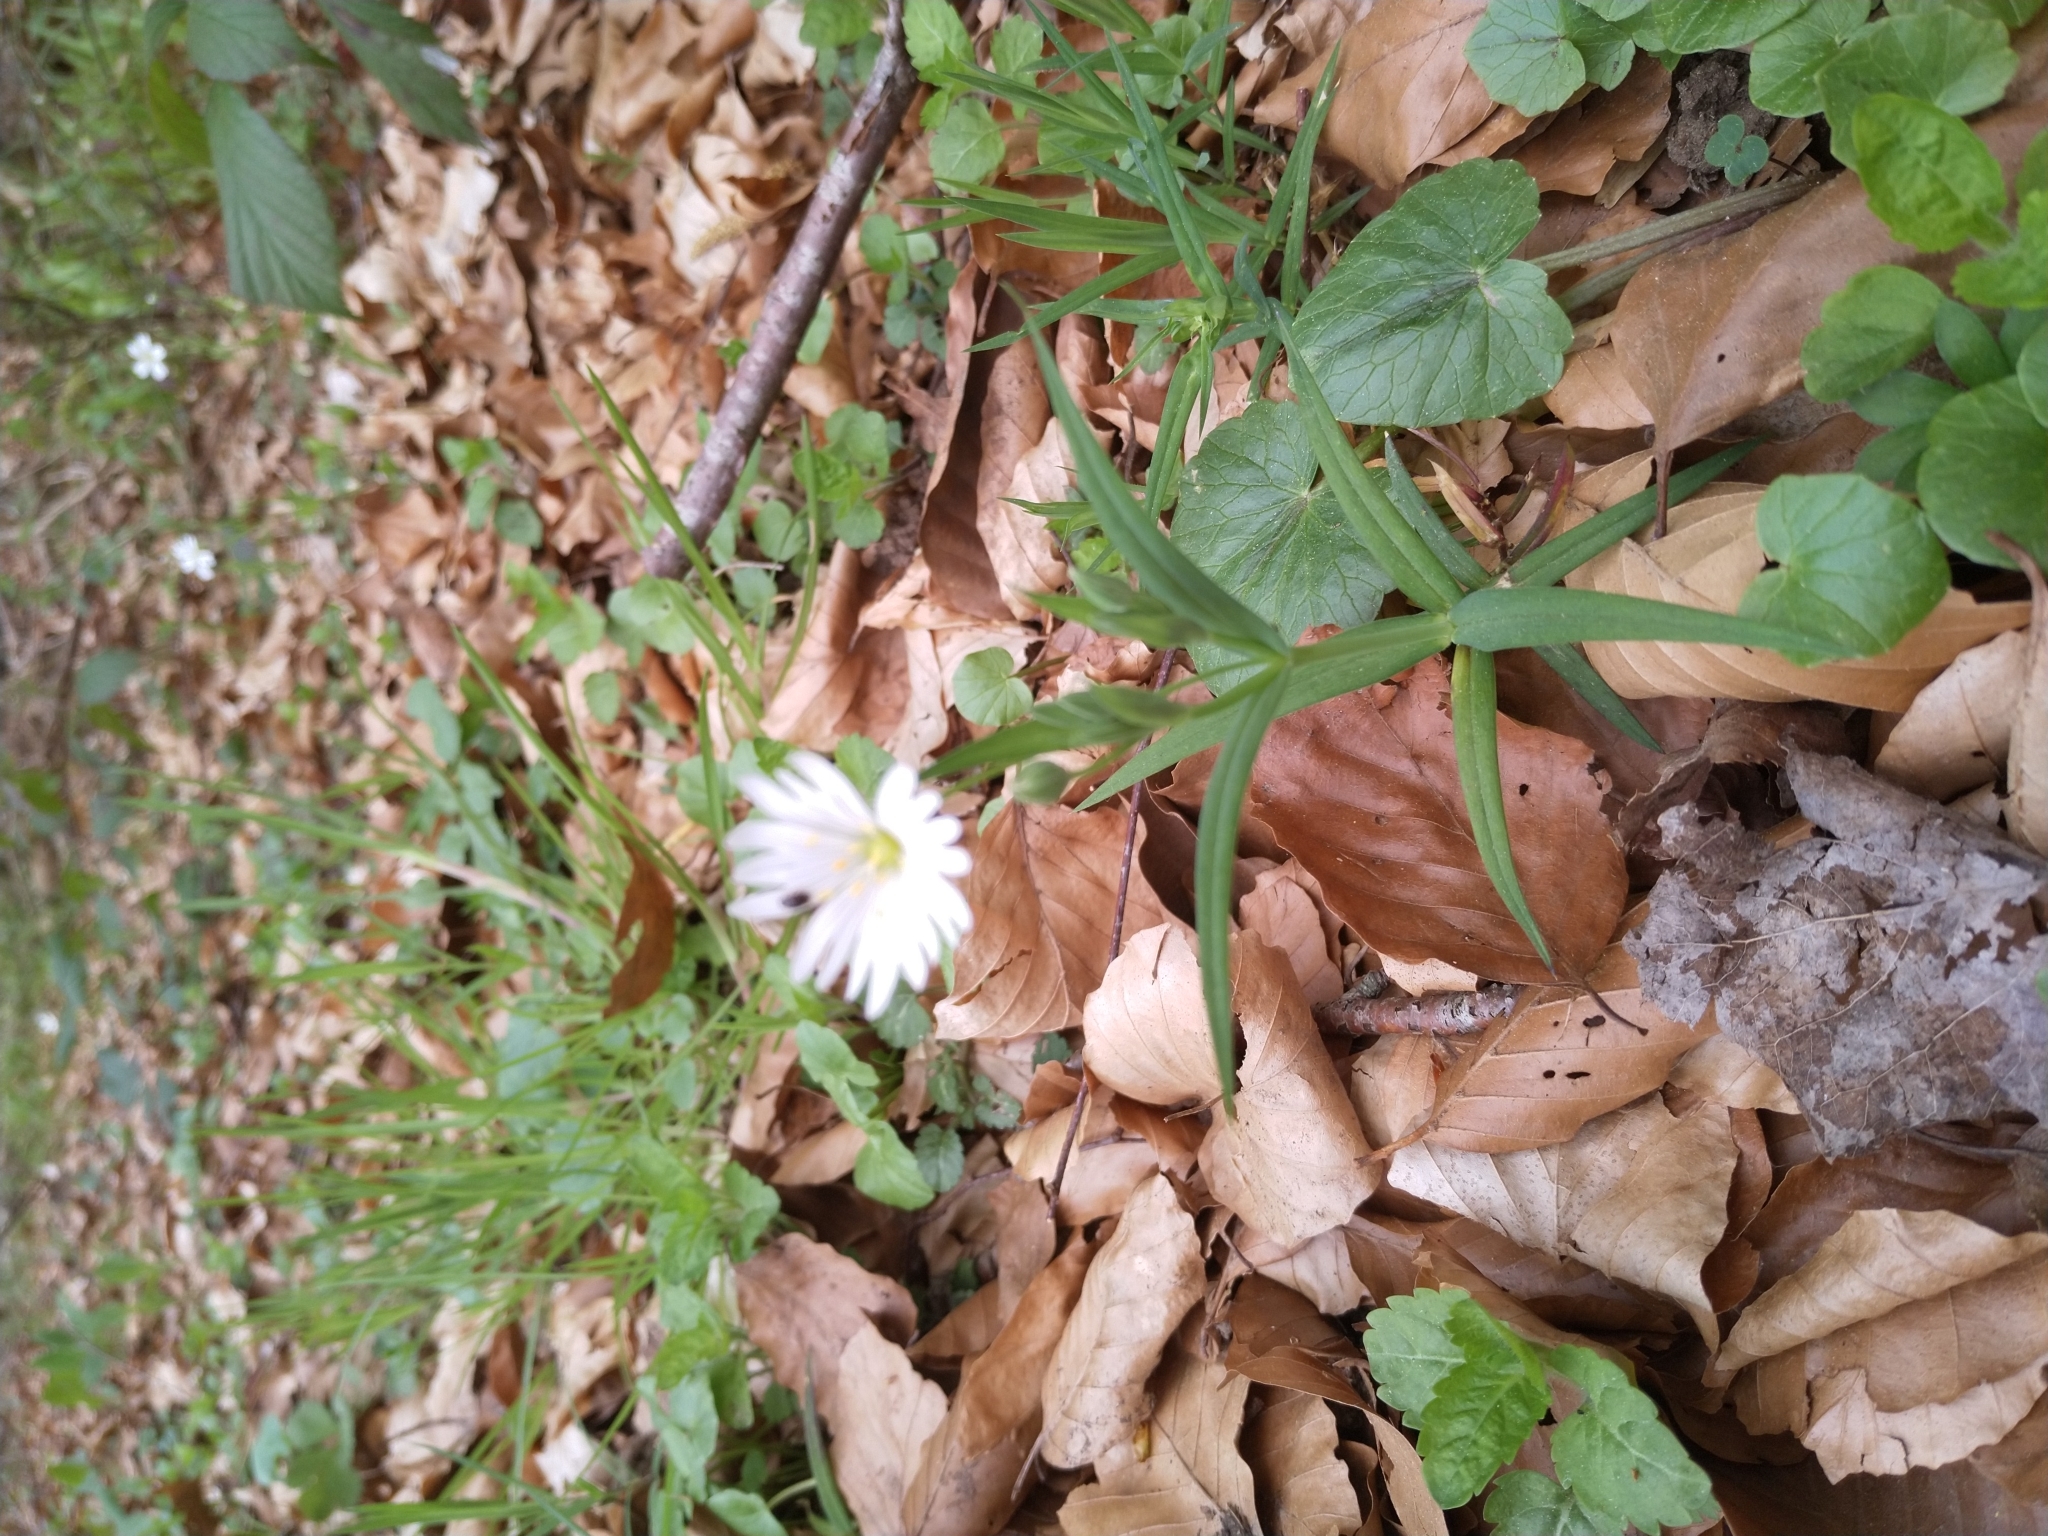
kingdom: Plantae
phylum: Tracheophyta
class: Magnoliopsida
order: Caryophyllales
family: Caryophyllaceae
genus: Rabelera
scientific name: Rabelera holostea
